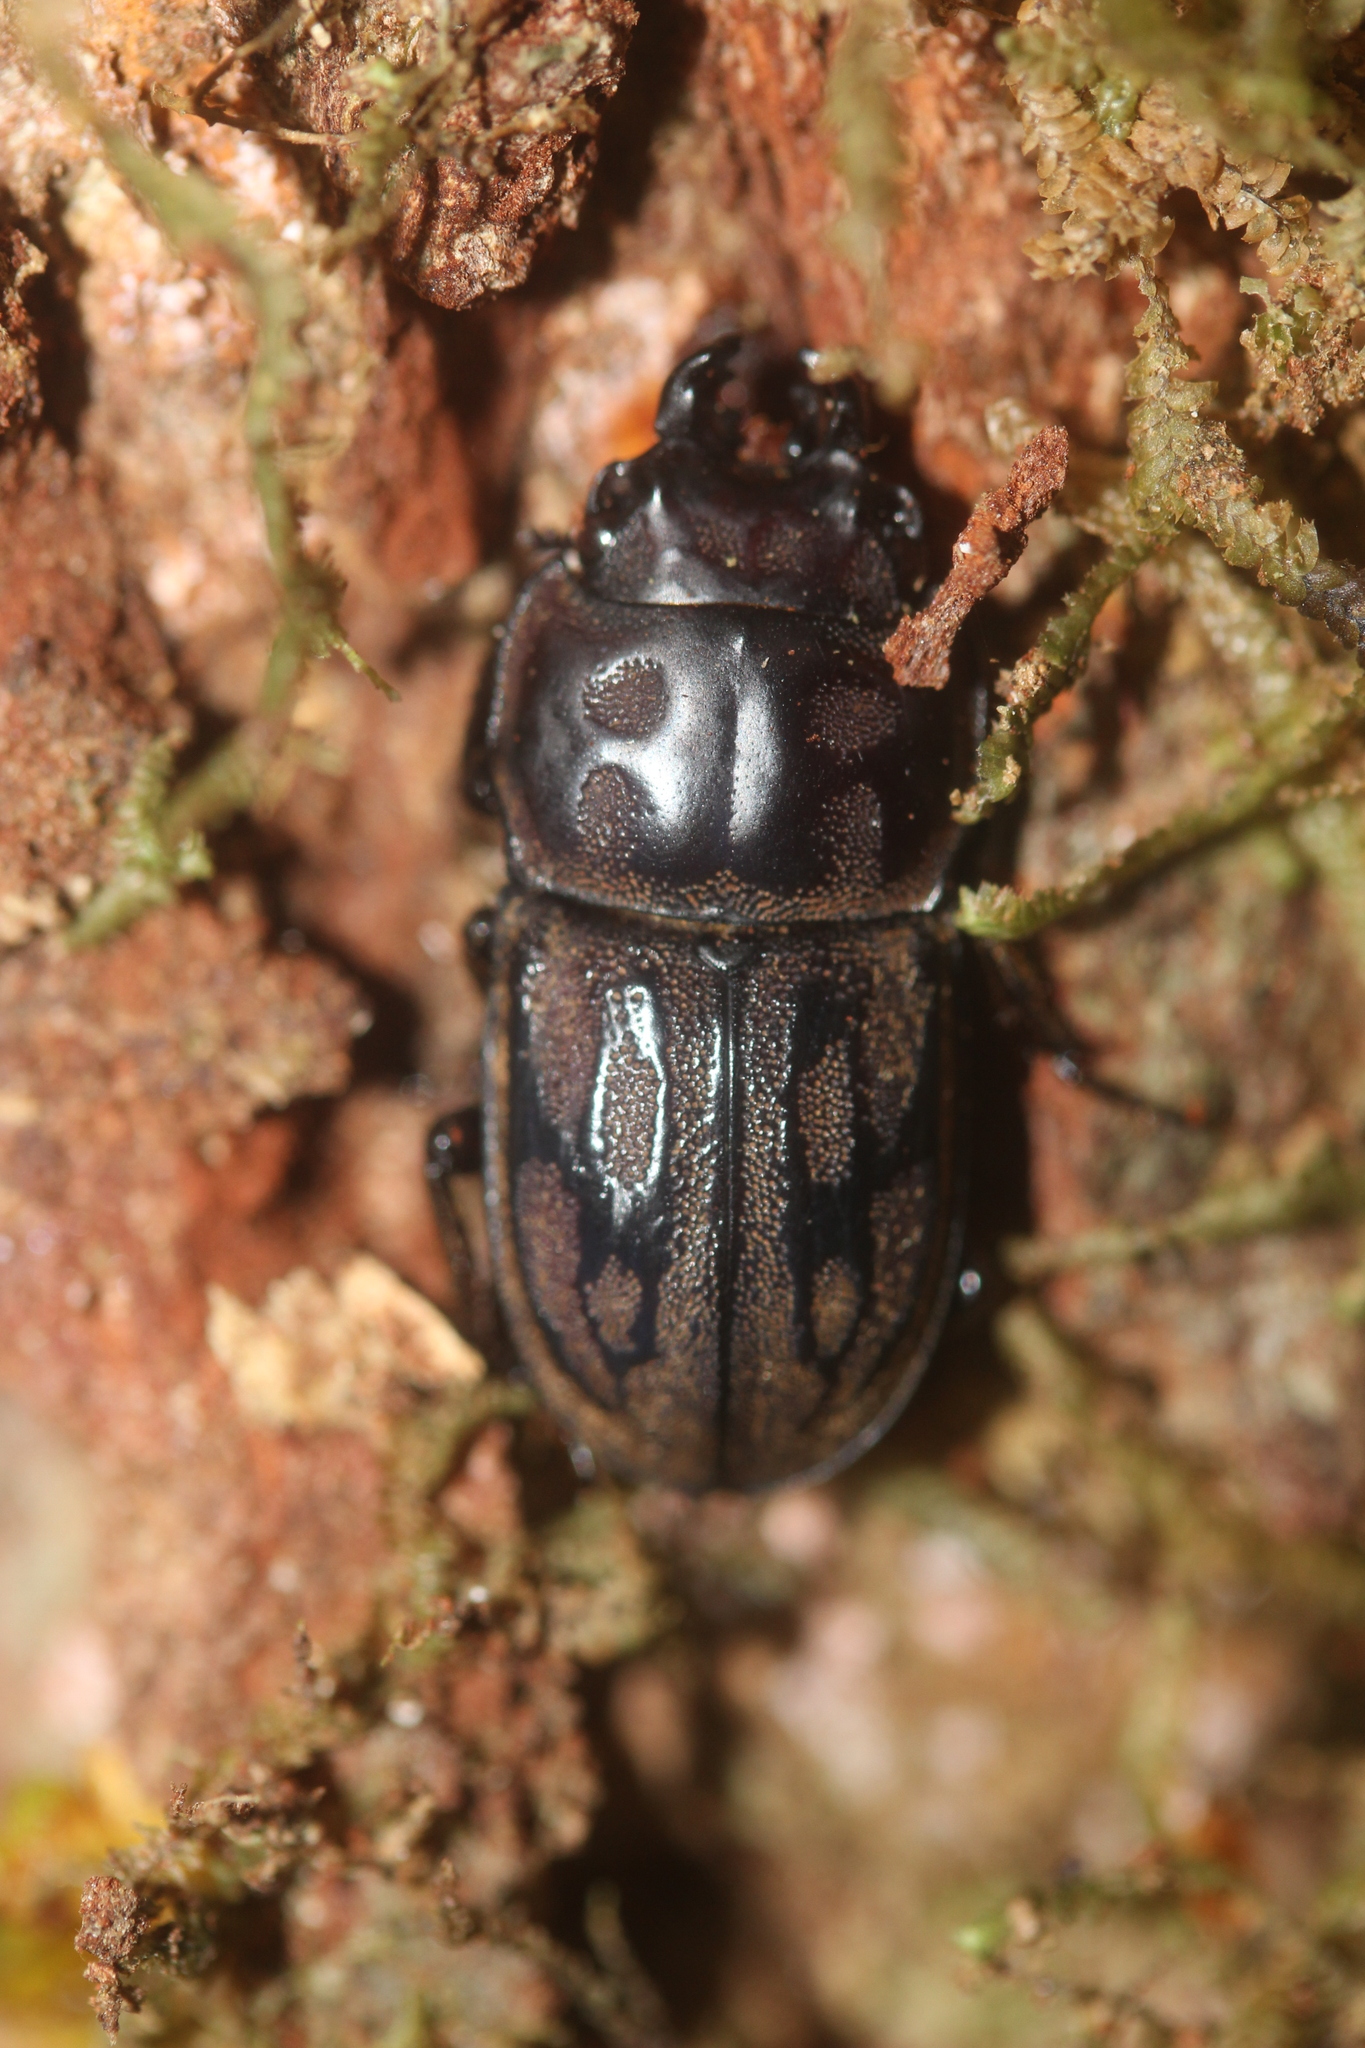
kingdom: Animalia
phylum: Arthropoda
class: Insecta
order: Coleoptera
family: Lucanidae
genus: Paralissotes
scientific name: Paralissotes reticulatus
